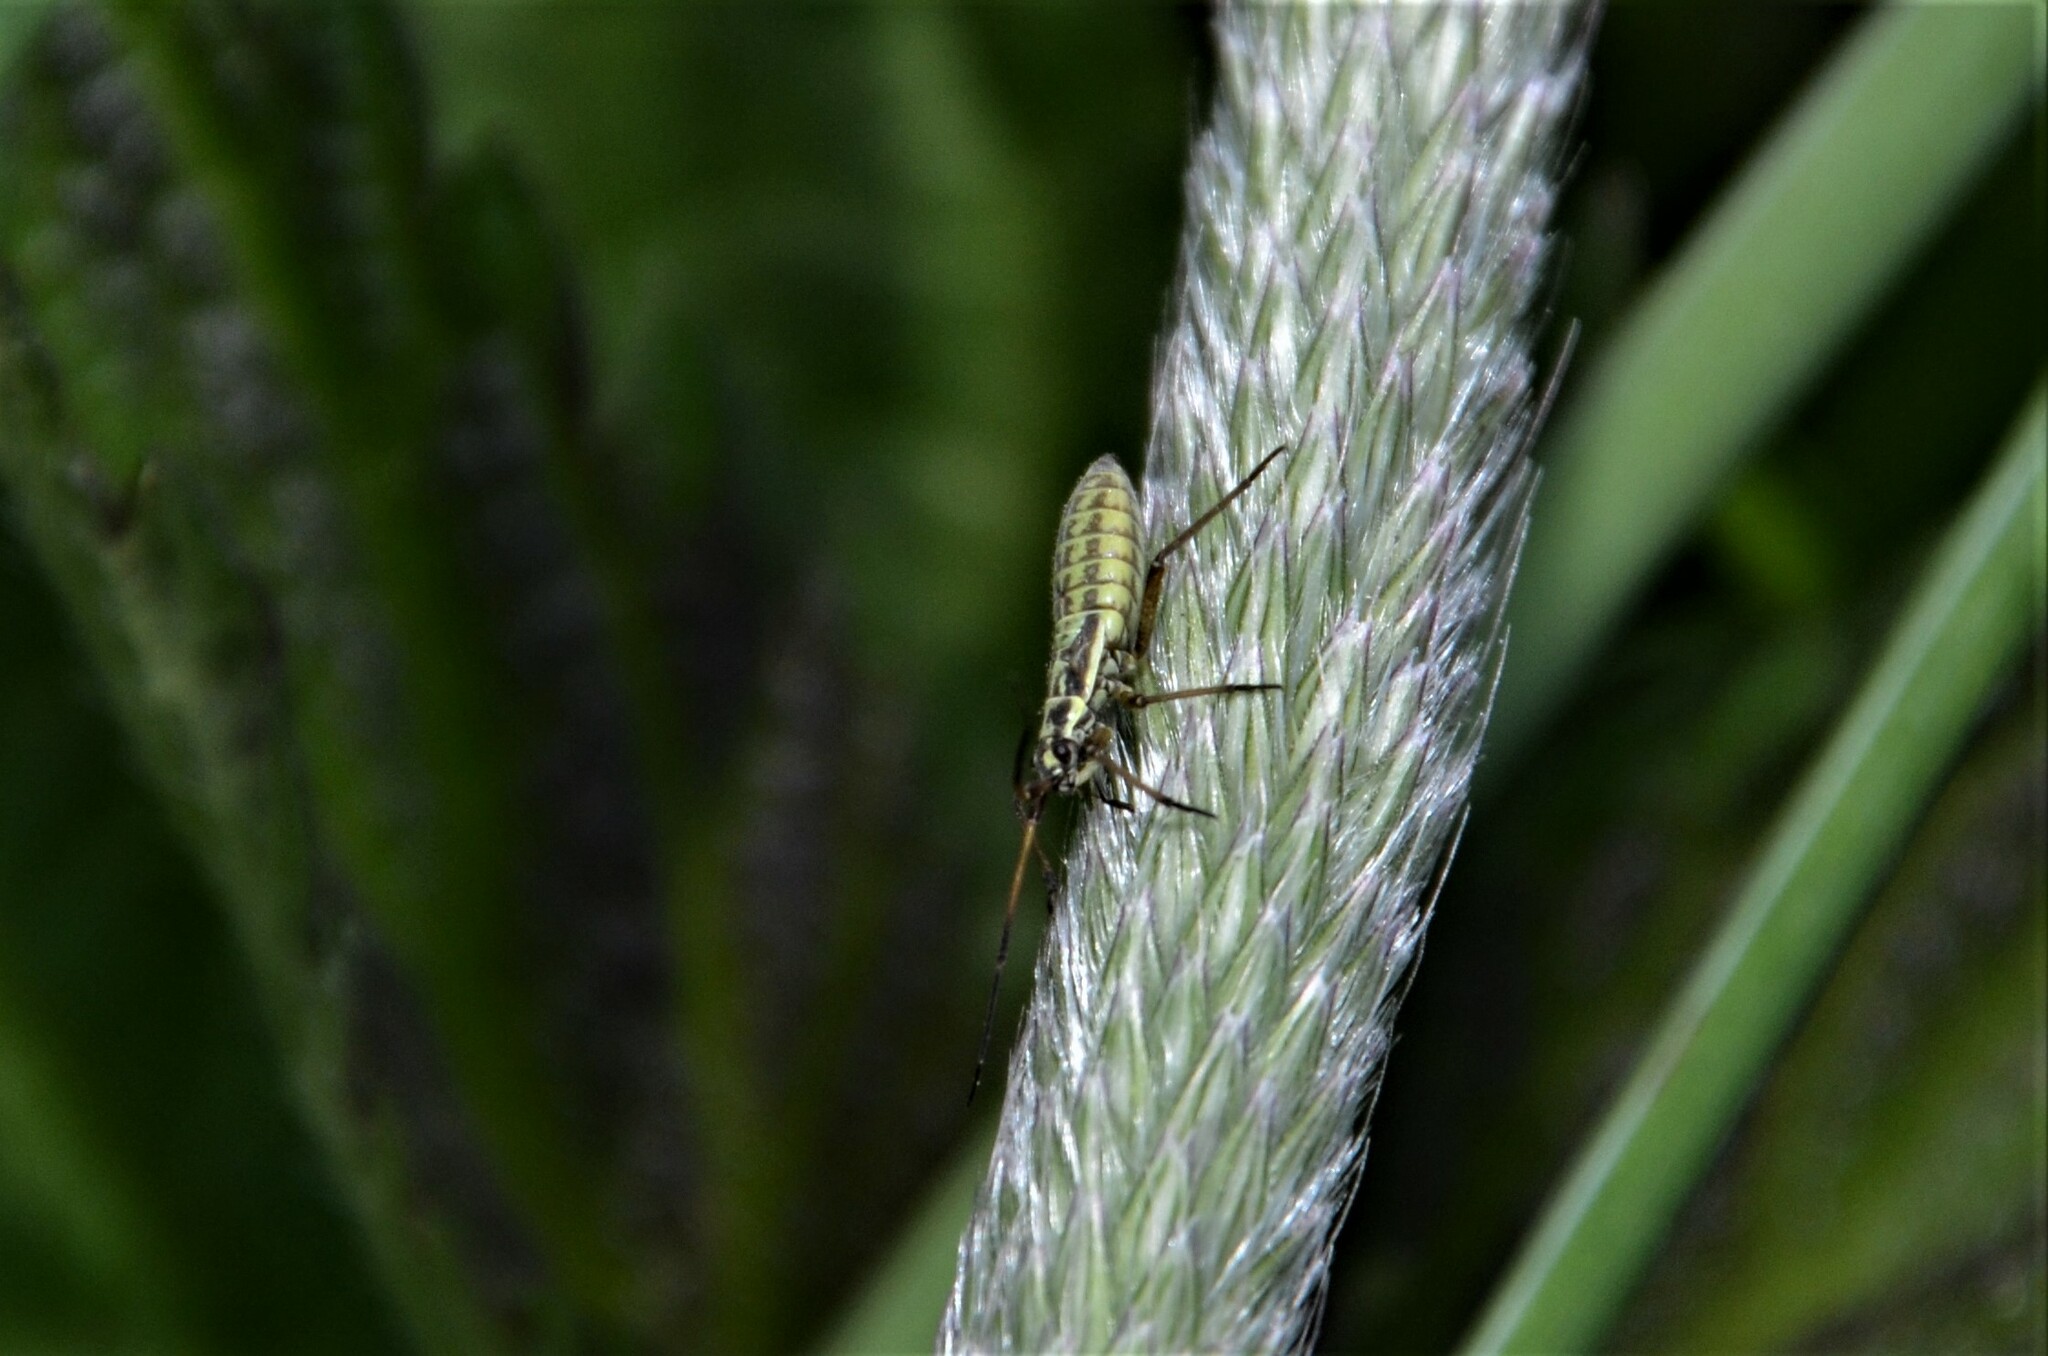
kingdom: Animalia
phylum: Arthropoda
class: Insecta
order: Hemiptera
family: Miridae
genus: Leptopterna
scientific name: Leptopterna dolabrata
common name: Meadow plant bug
